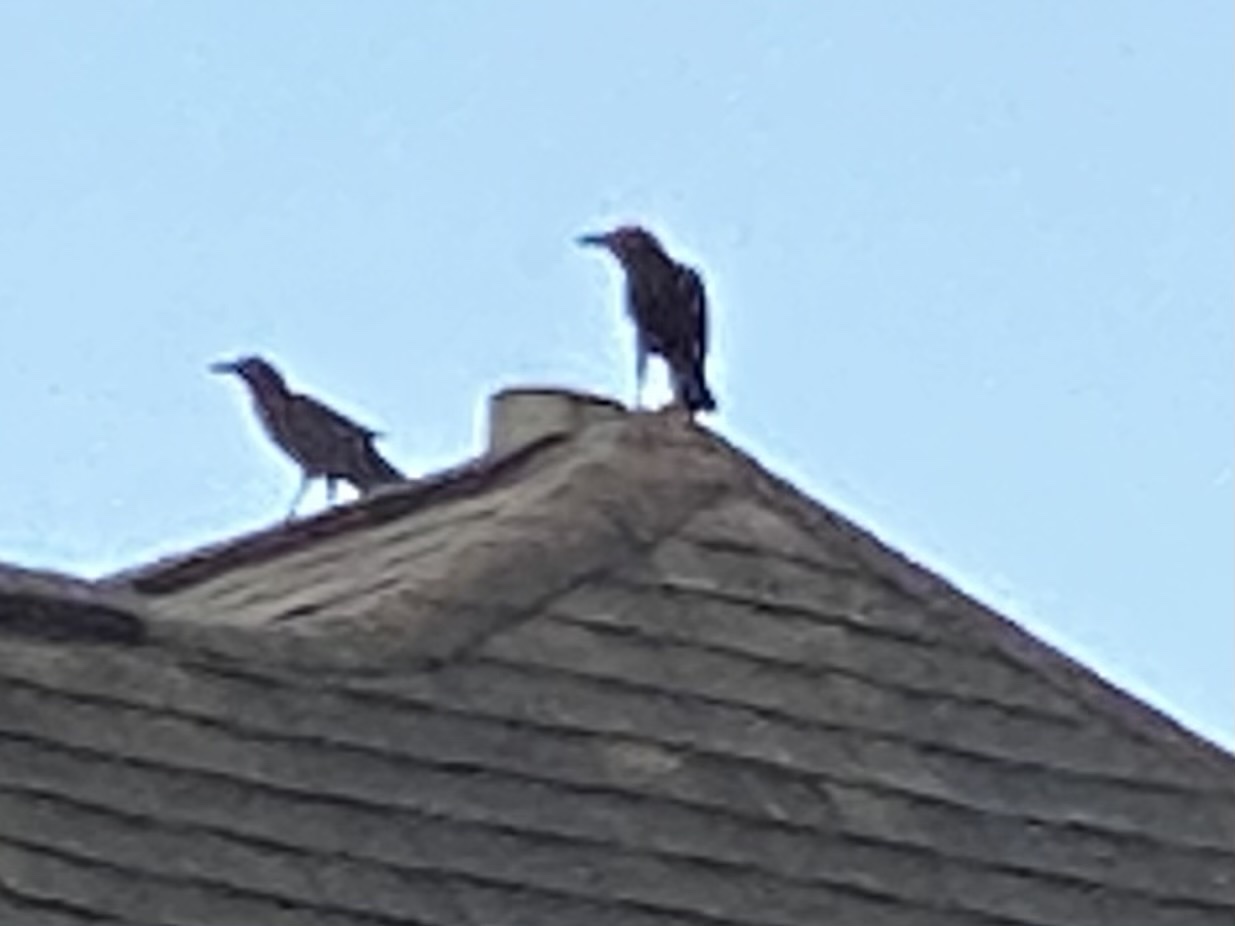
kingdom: Animalia
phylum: Chordata
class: Aves
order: Passeriformes
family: Corvidae
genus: Corvus
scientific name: Corvus brachyrhynchos
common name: American crow
